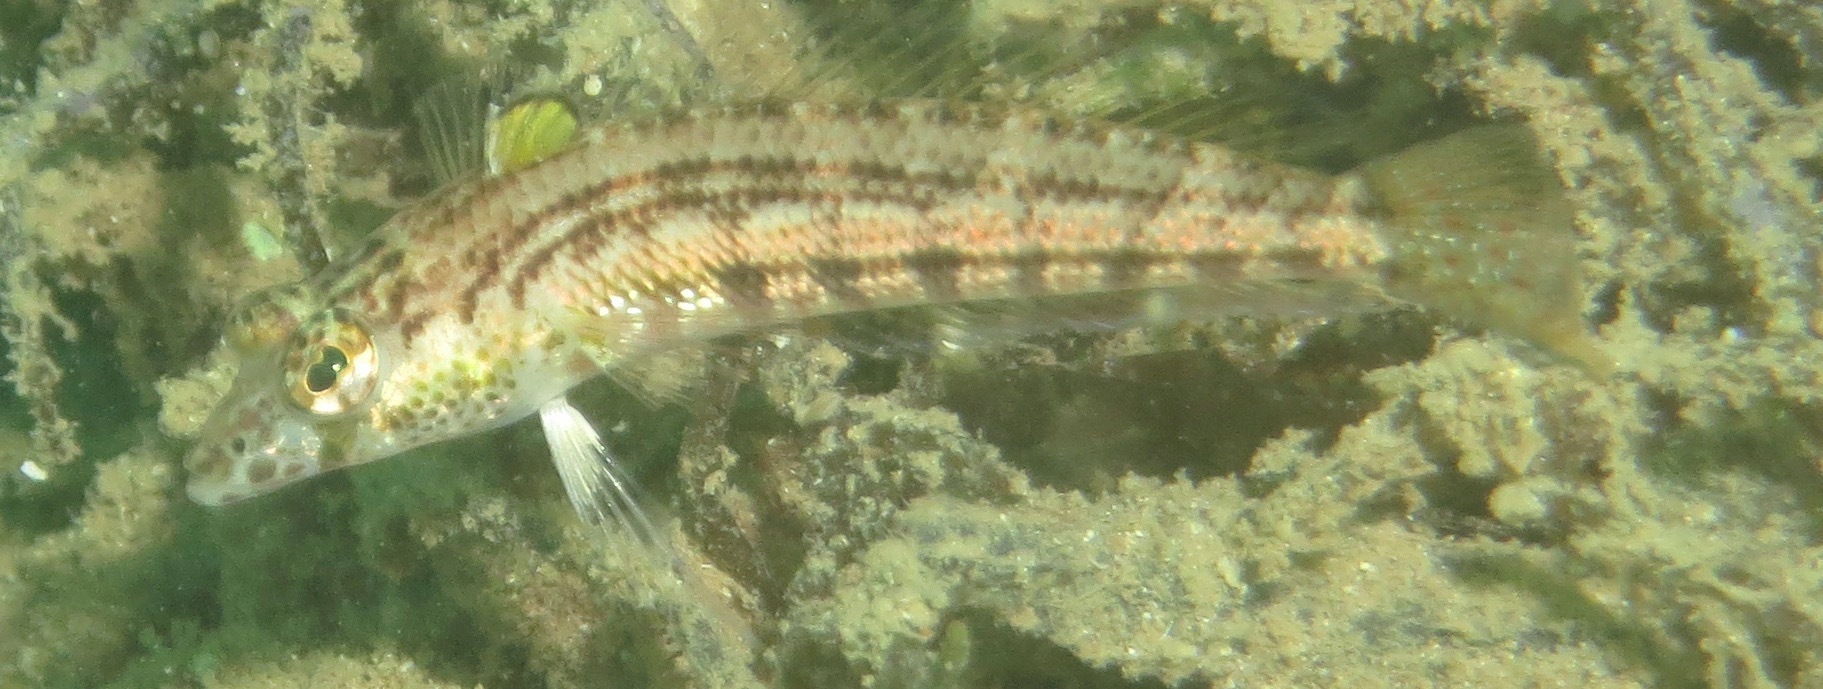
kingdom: Animalia
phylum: Chordata
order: Perciformes
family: Pinguipedidae
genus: Parapercis
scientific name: Parapercis australis
